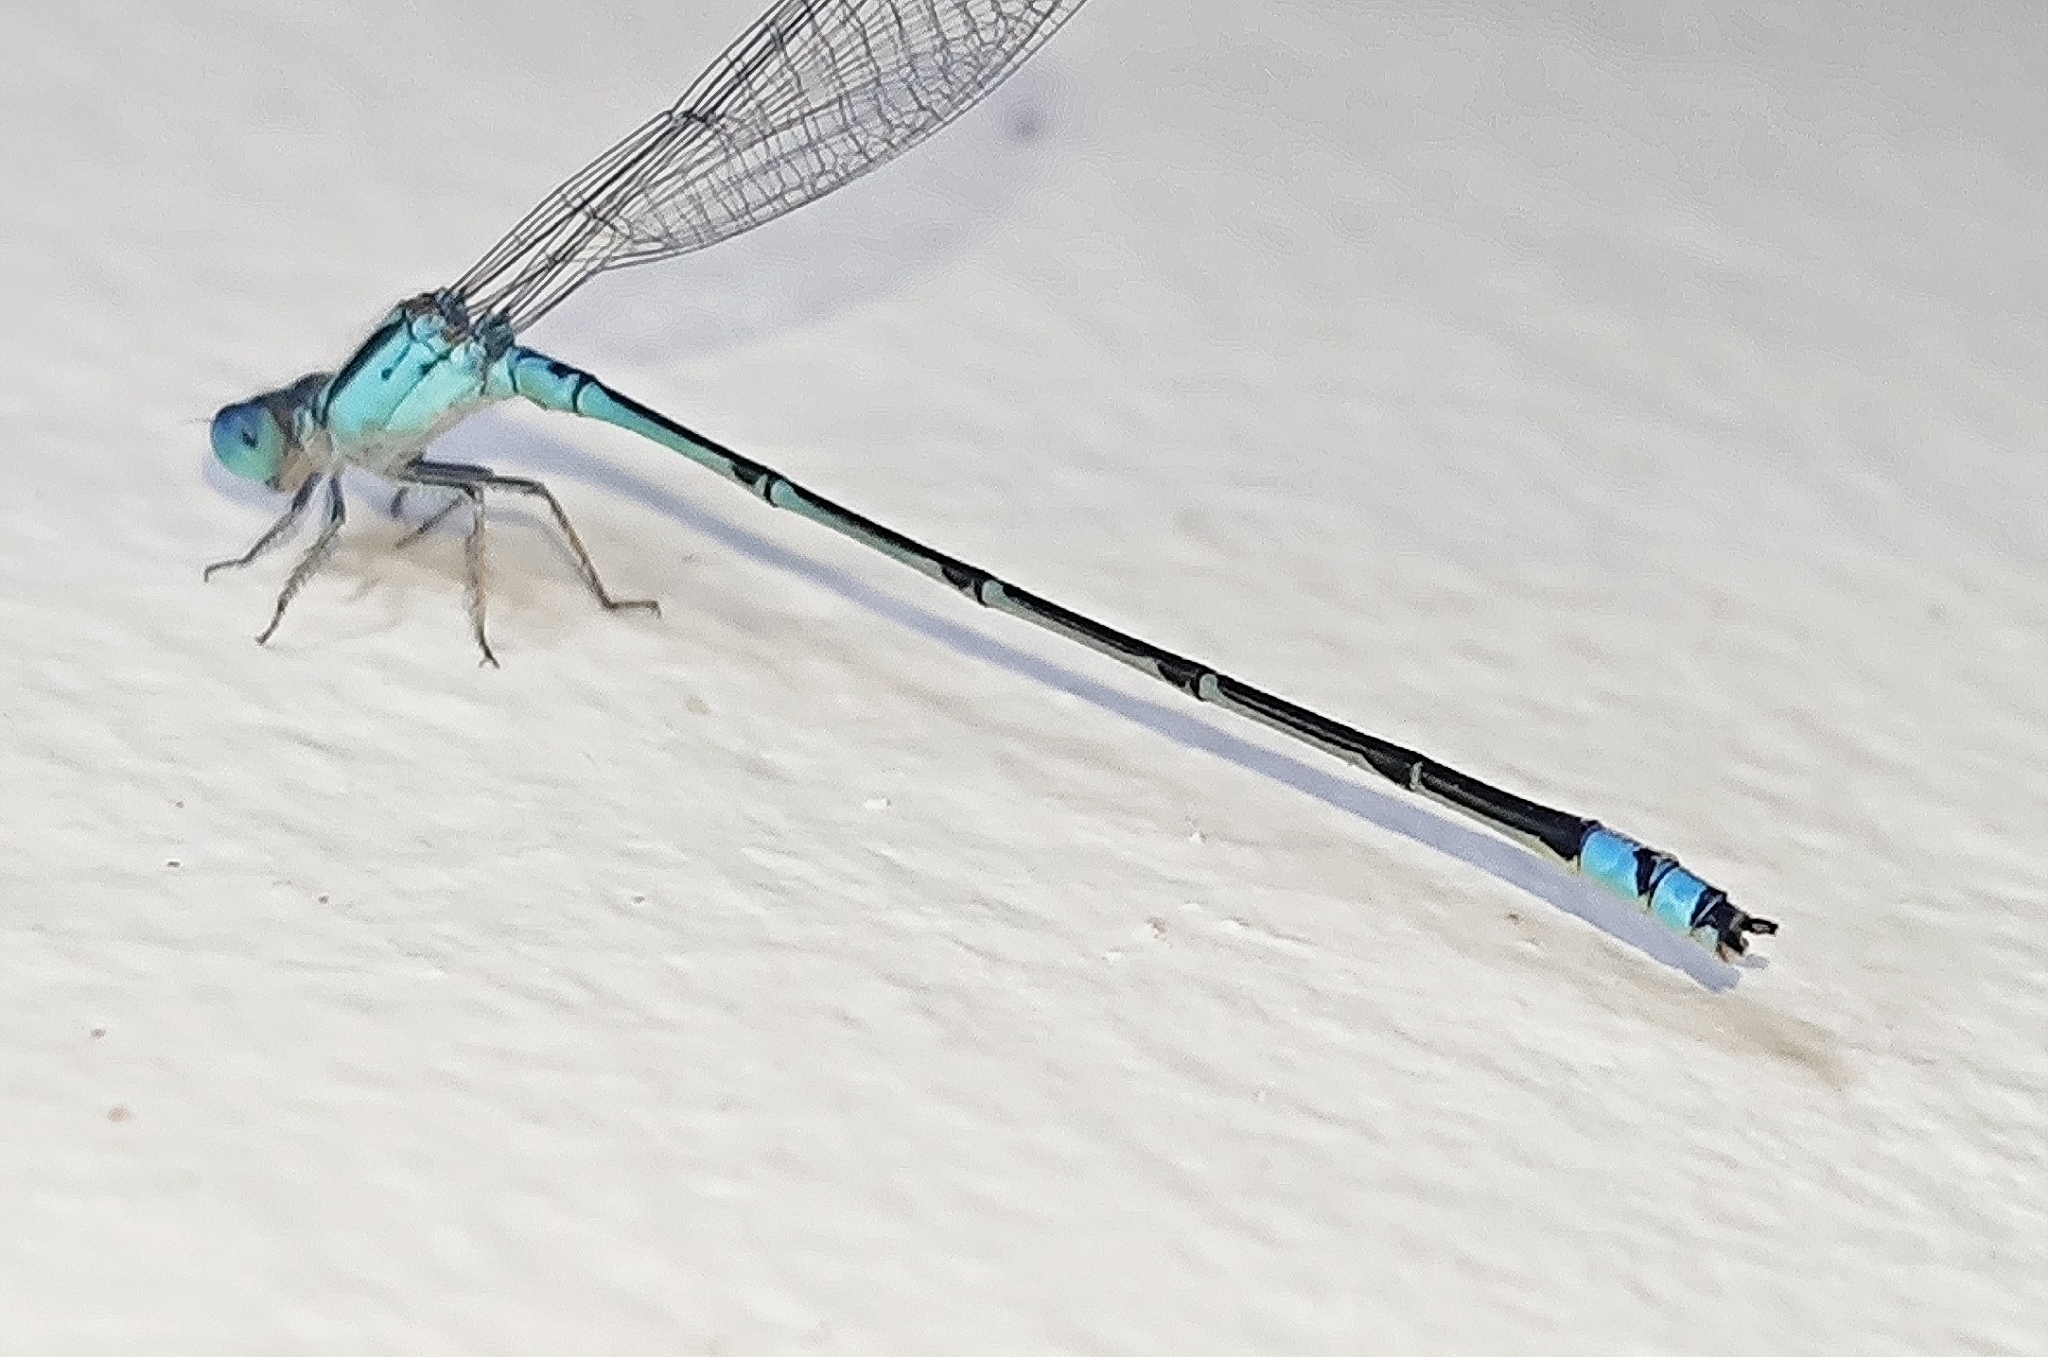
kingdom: Animalia
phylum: Arthropoda
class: Insecta
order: Odonata
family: Coenagrionidae
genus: Pseudagrion
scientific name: Pseudagrion microcephalum
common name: Blue riverdamsel
